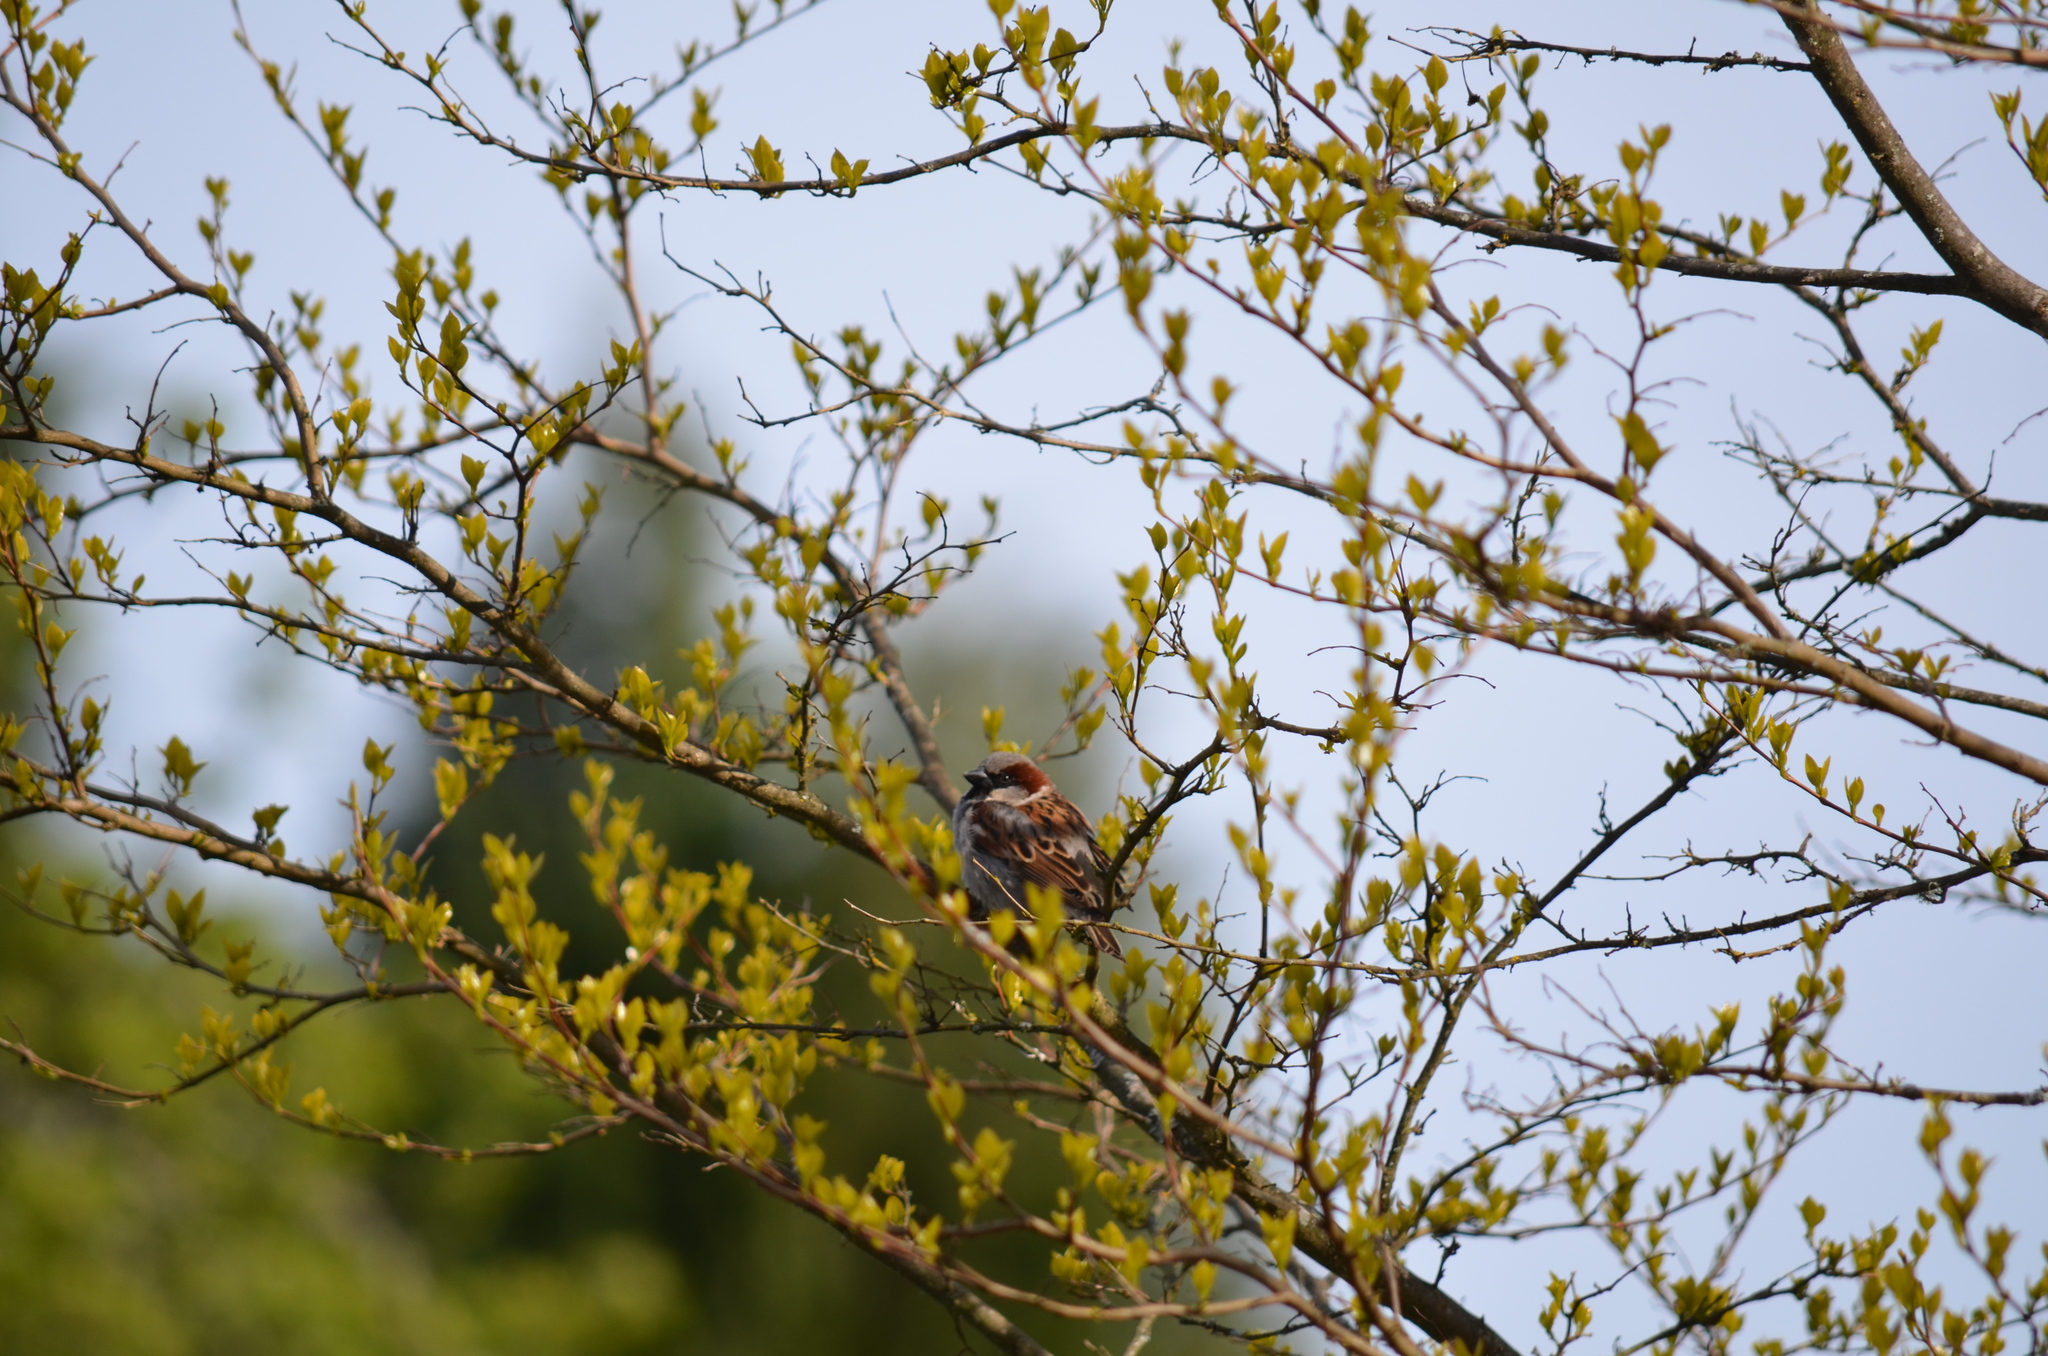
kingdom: Animalia
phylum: Chordata
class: Aves
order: Passeriformes
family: Passeridae
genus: Passer
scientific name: Passer domesticus
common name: House sparrow
